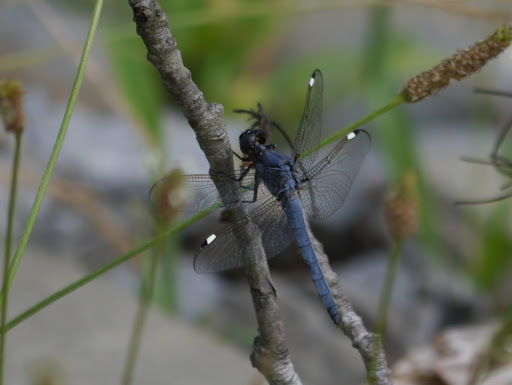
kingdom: Animalia
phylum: Arthropoda
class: Insecta
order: Odonata
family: Libellulidae
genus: Libellula
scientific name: Libellula cyanea
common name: Spangled skimmer
